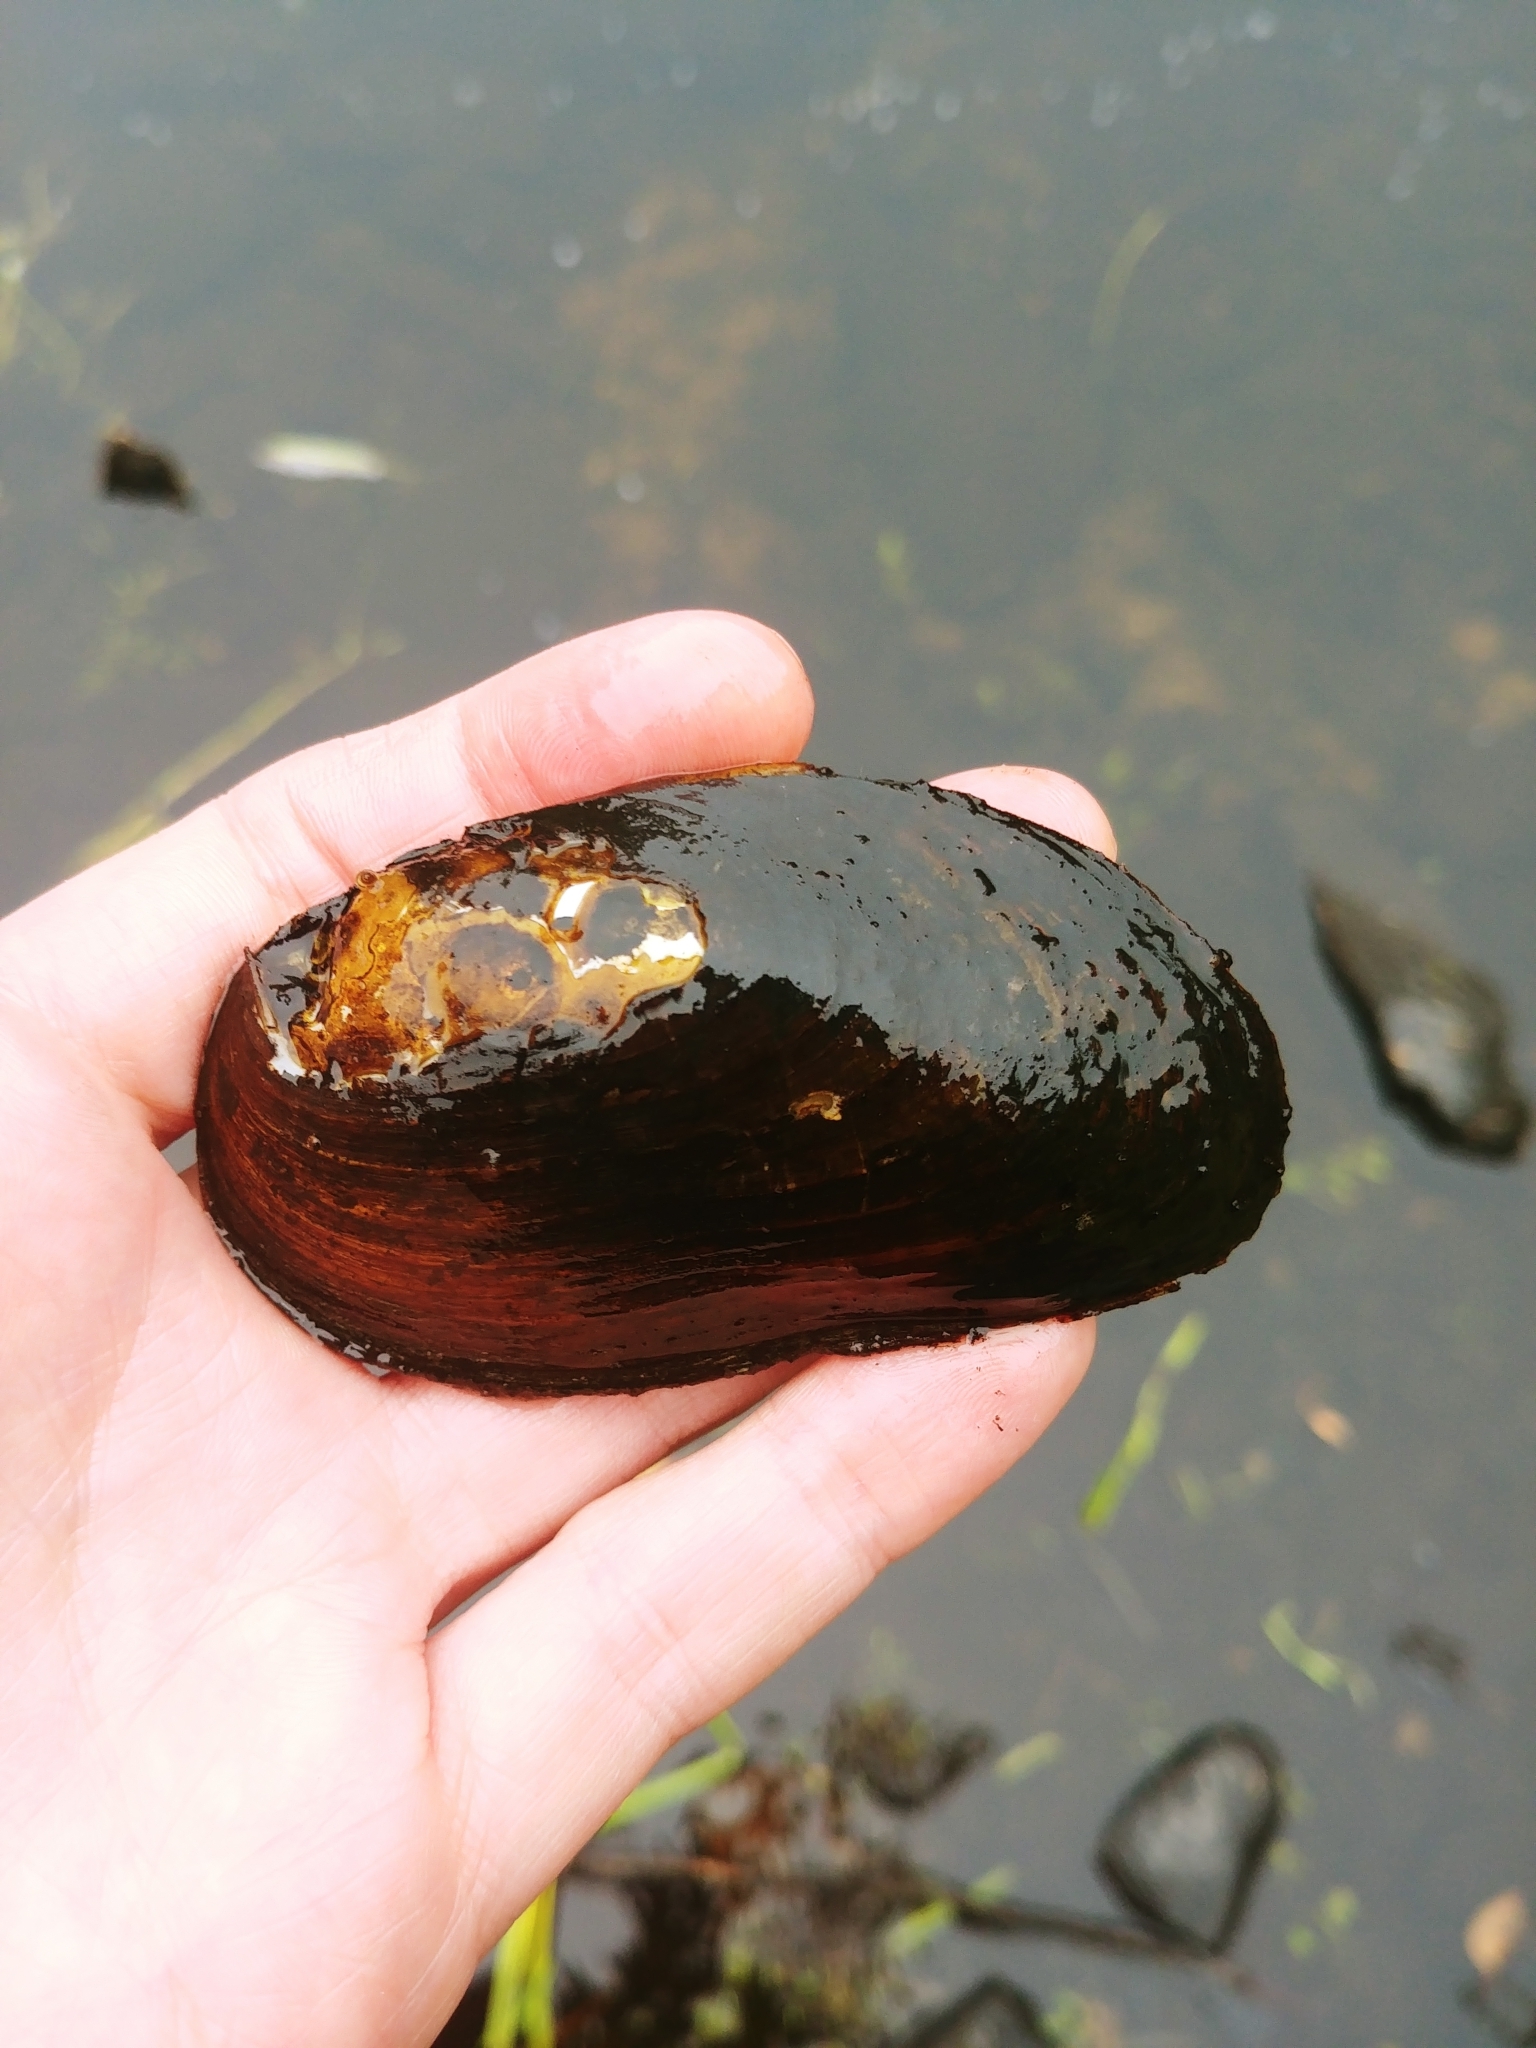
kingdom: Animalia
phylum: Mollusca
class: Bivalvia
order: Unionida
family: Unionidae
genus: Elliptio
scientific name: Elliptio complanata
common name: Eastern elliptio
